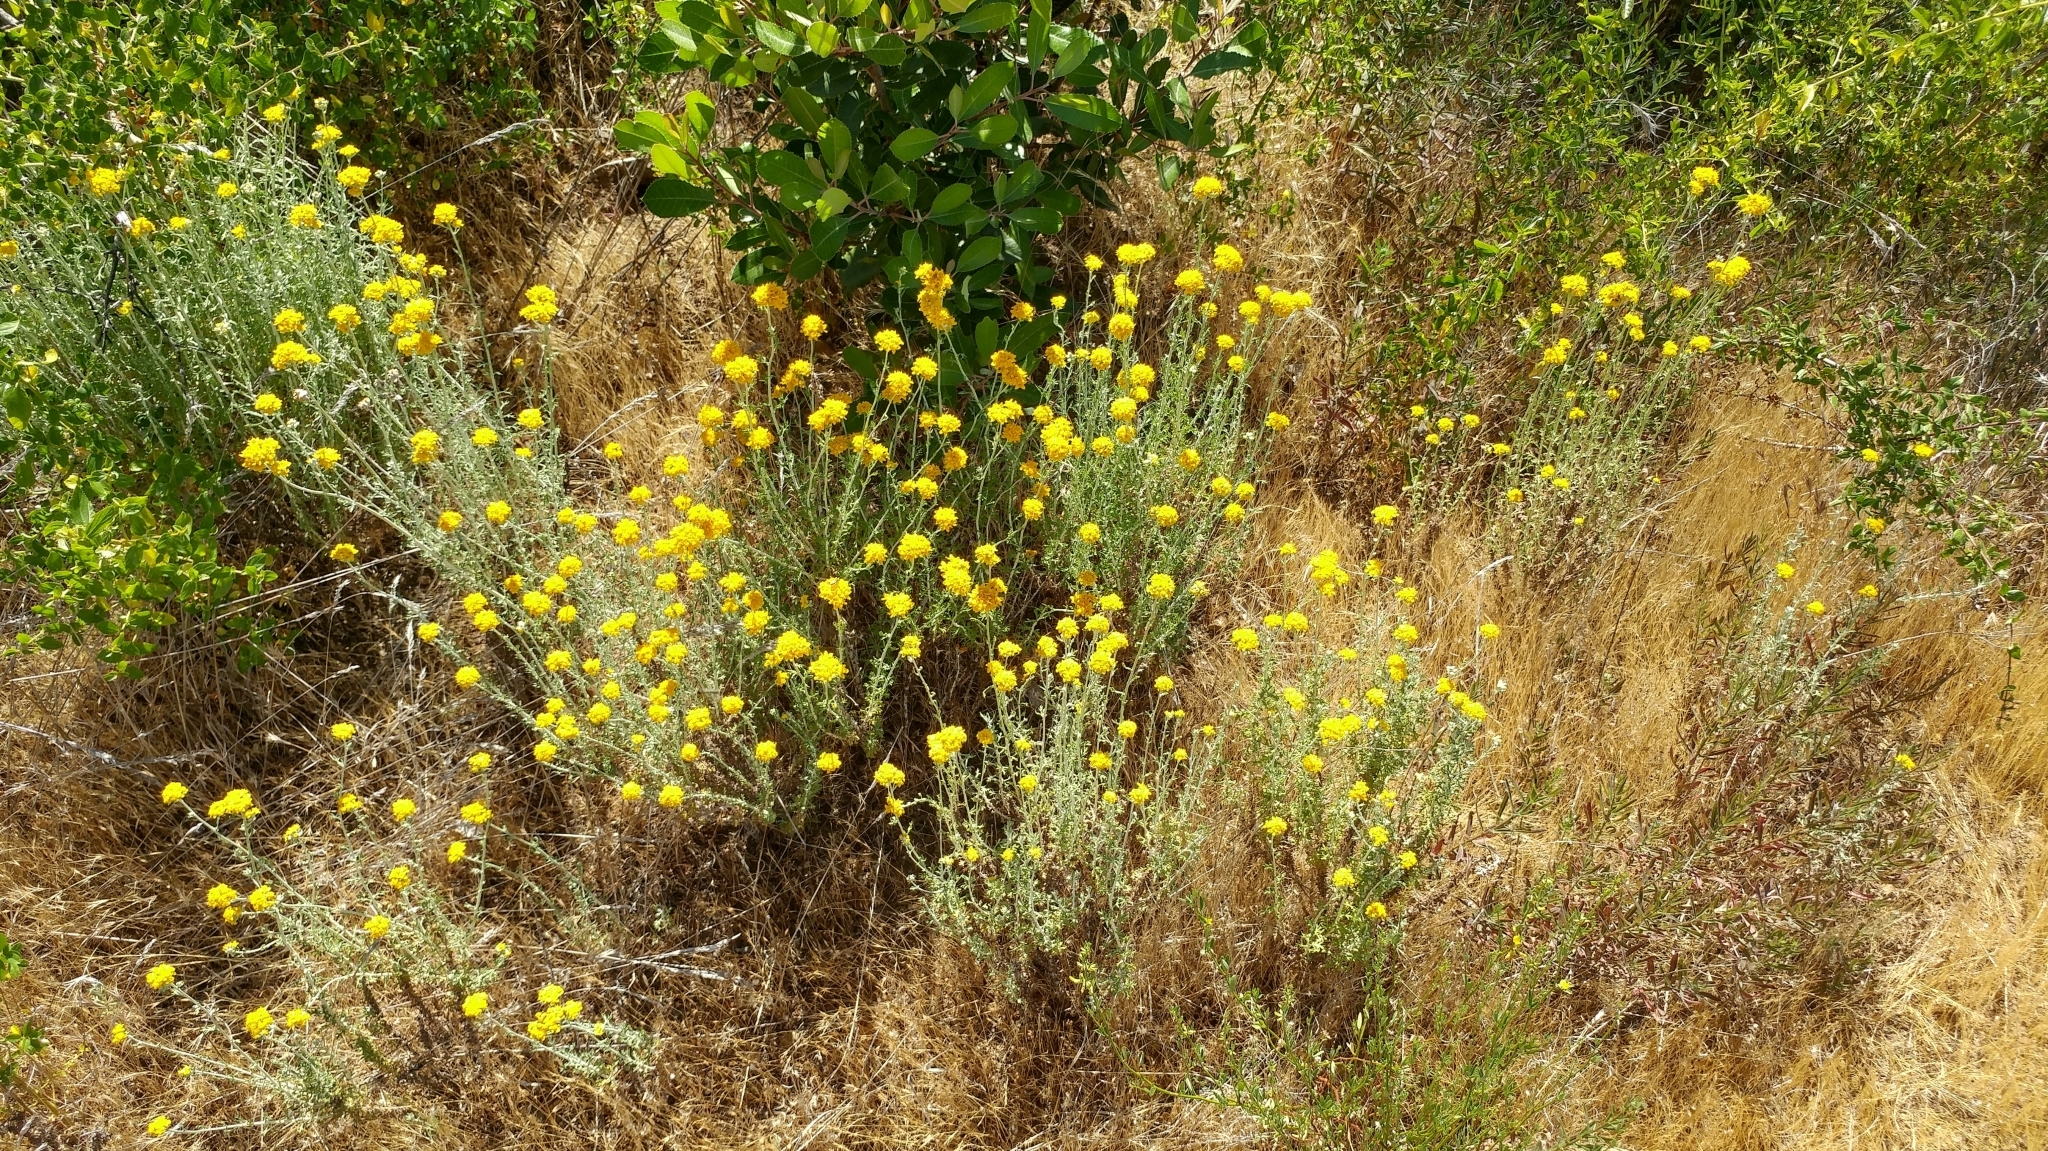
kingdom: Plantae
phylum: Tracheophyta
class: Magnoliopsida
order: Asterales
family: Asteraceae
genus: Eriophyllum
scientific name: Eriophyllum confertiflorum
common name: Golden-yarrow
